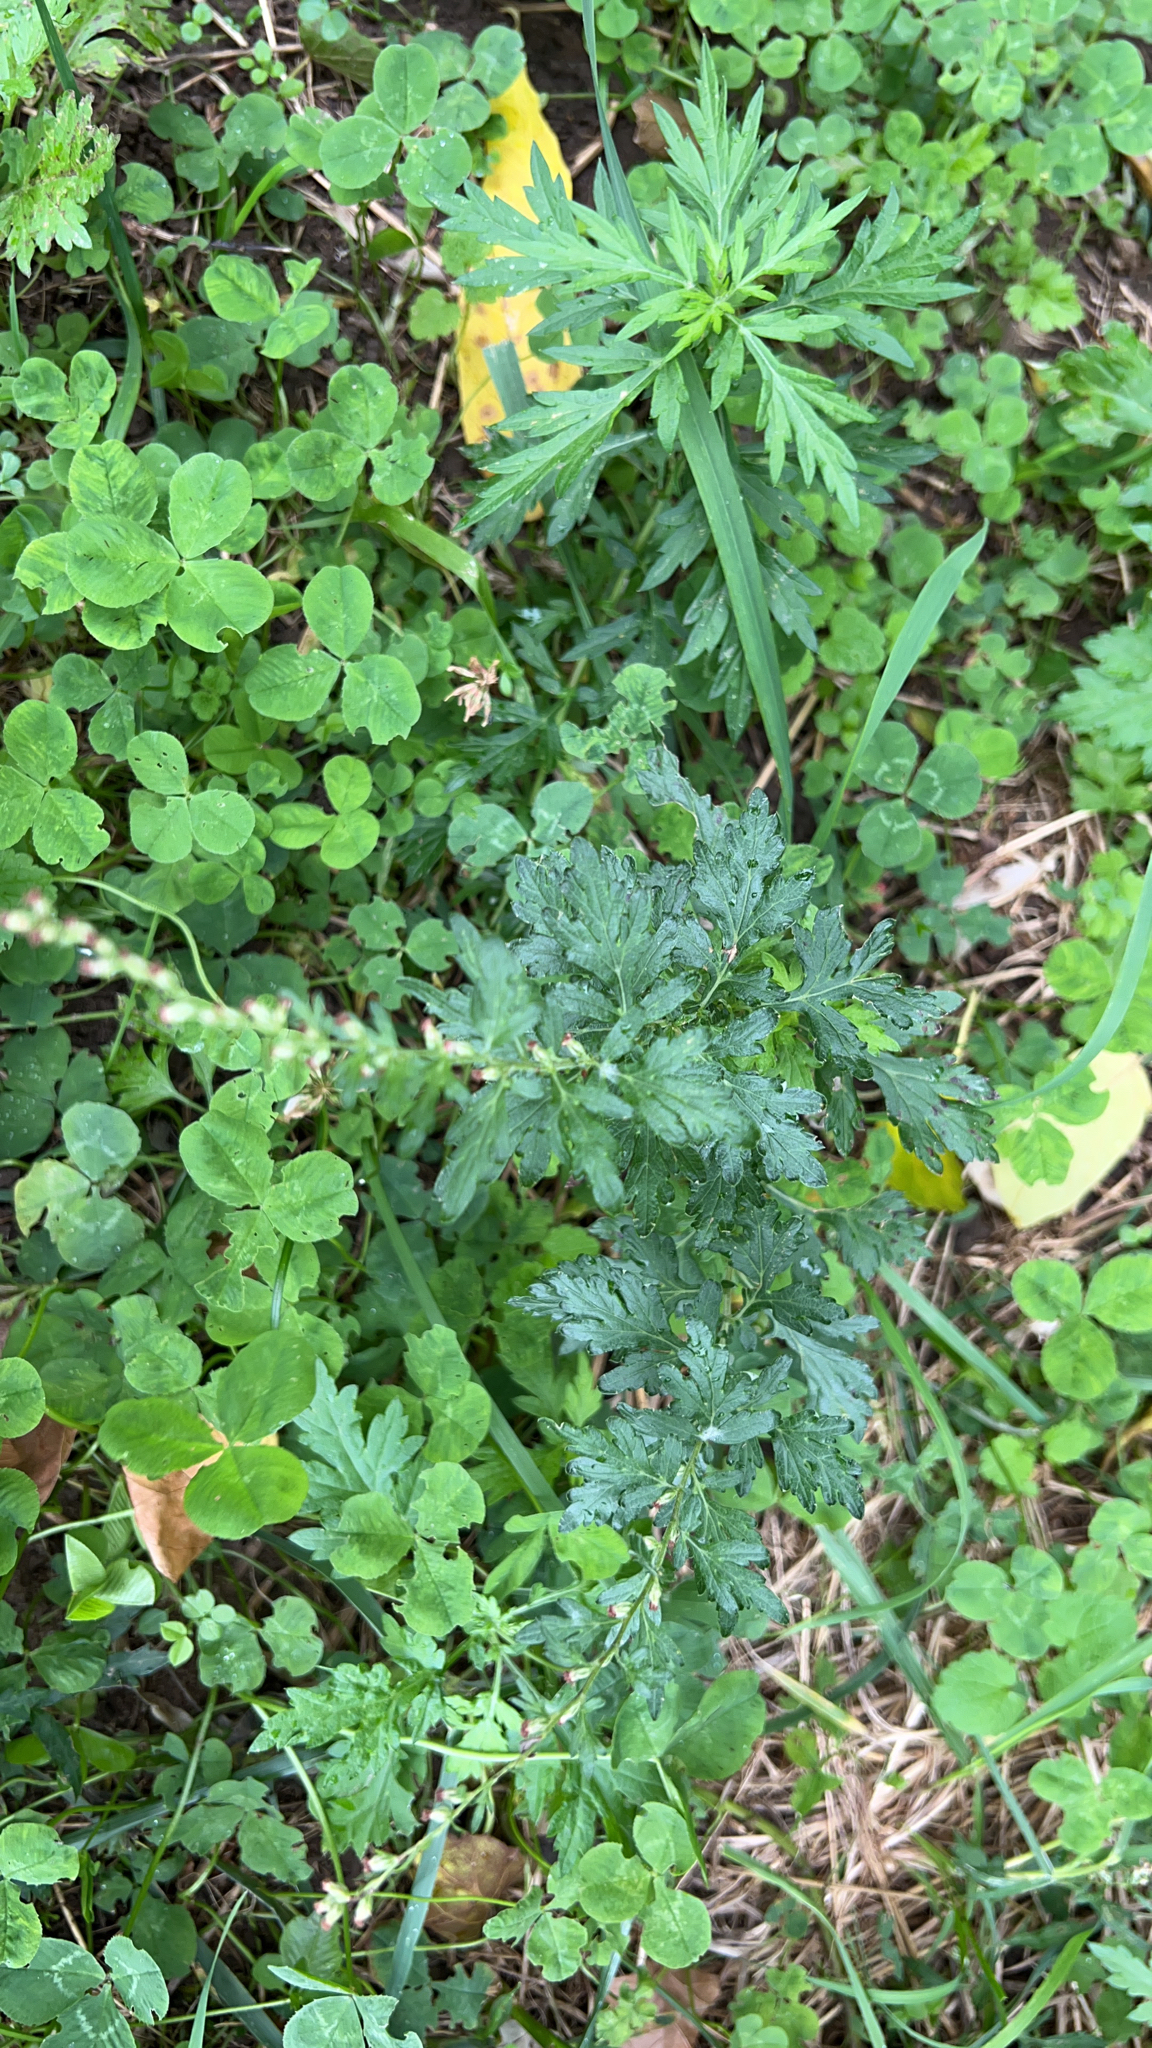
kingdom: Plantae
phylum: Tracheophyta
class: Magnoliopsida
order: Asterales
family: Asteraceae
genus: Artemisia
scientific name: Artemisia vulgaris
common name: Mugwort
